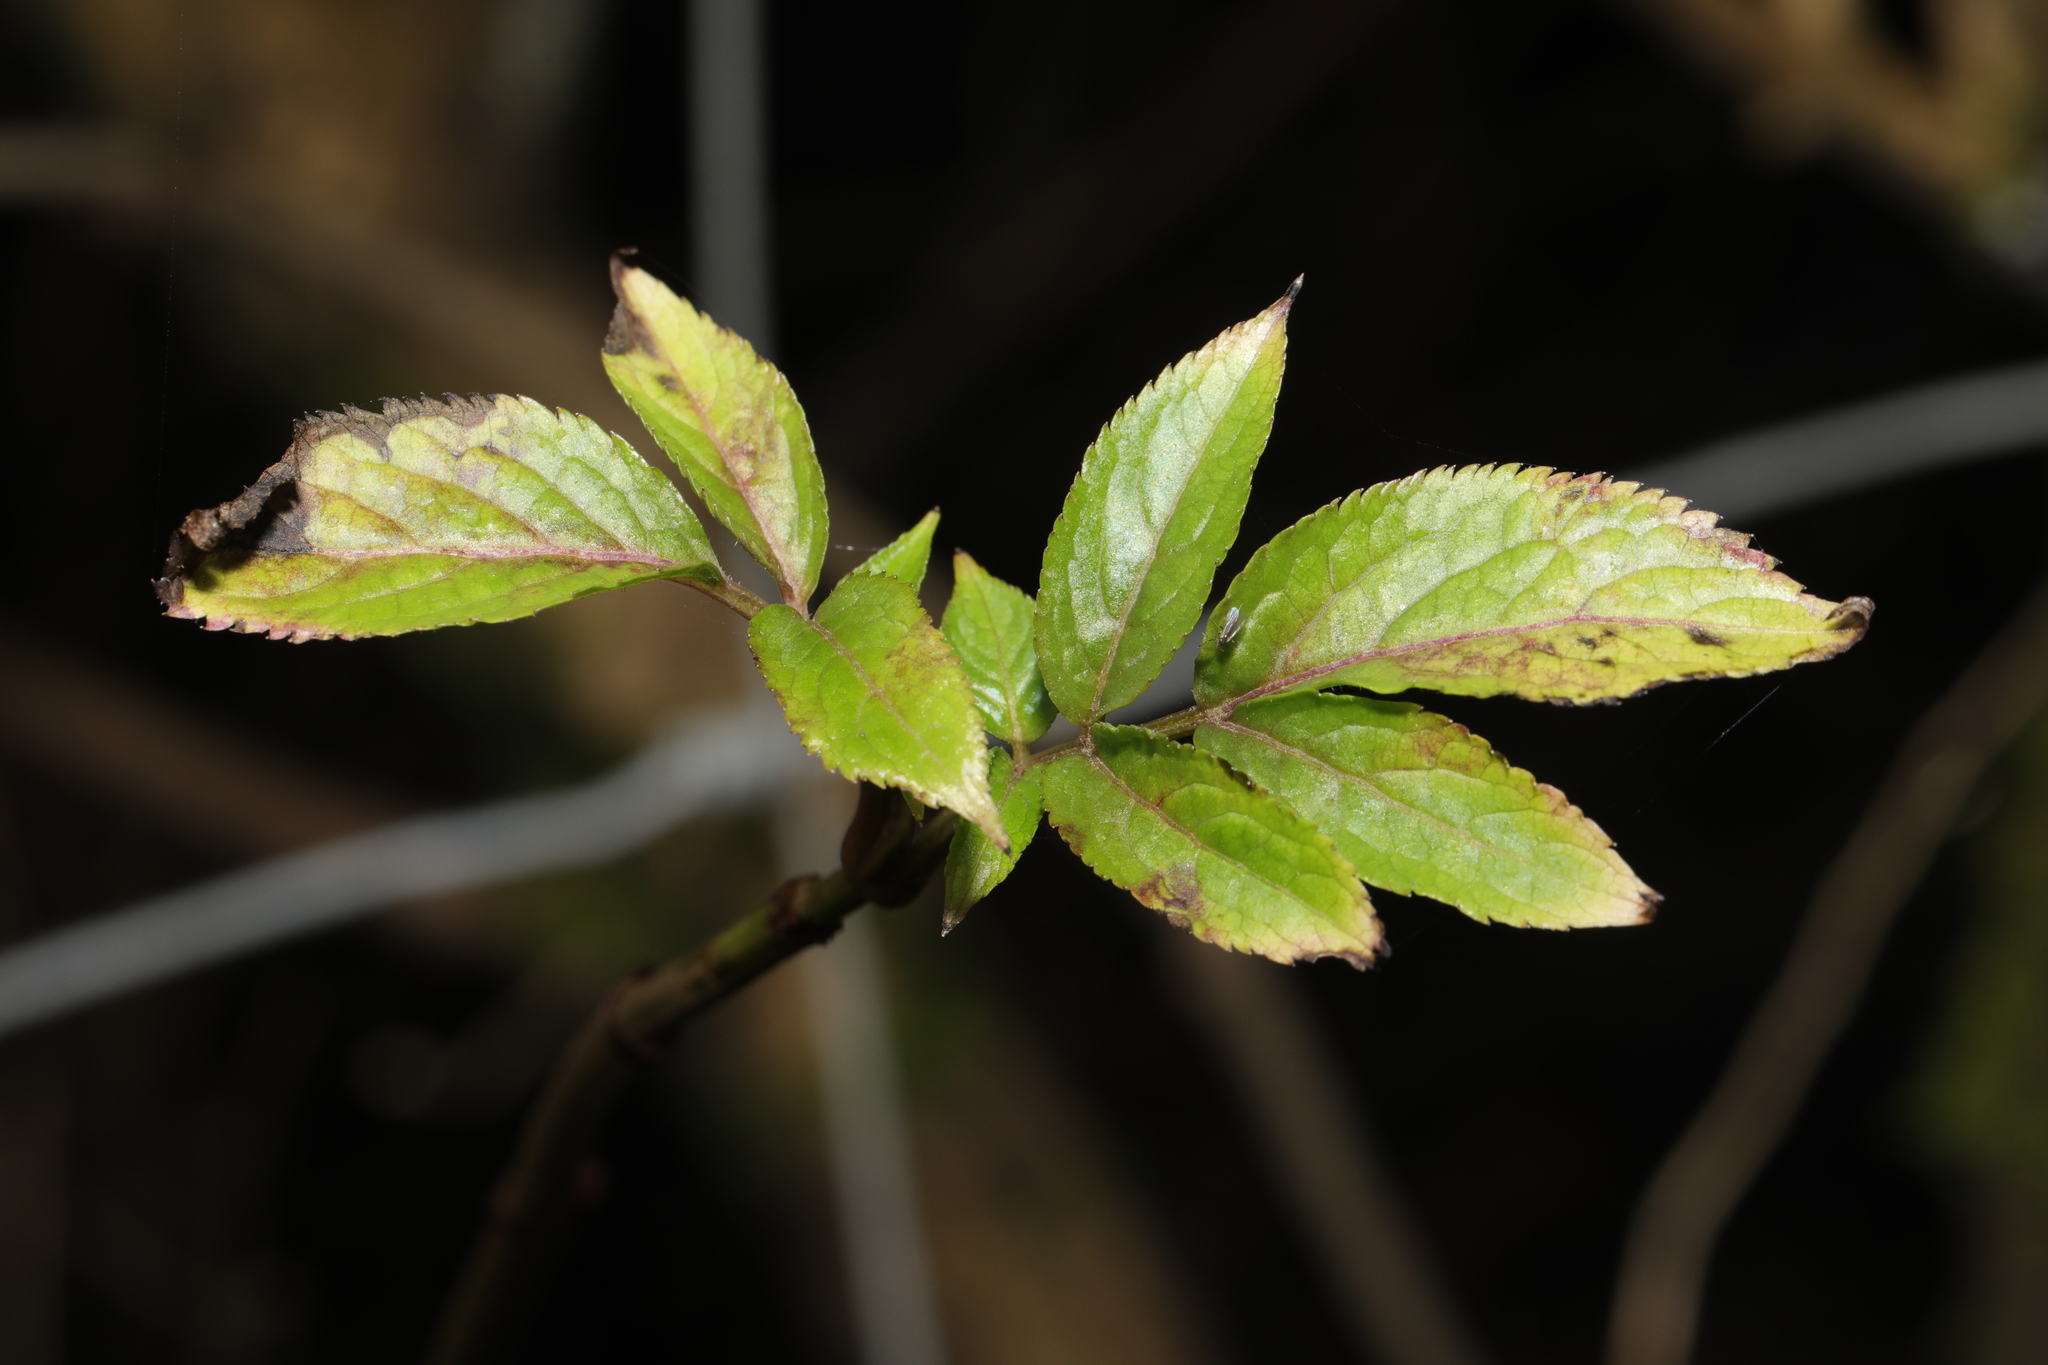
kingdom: Plantae
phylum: Tracheophyta
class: Magnoliopsida
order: Dipsacales
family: Viburnaceae
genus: Sambucus
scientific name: Sambucus nigra
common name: Elder
